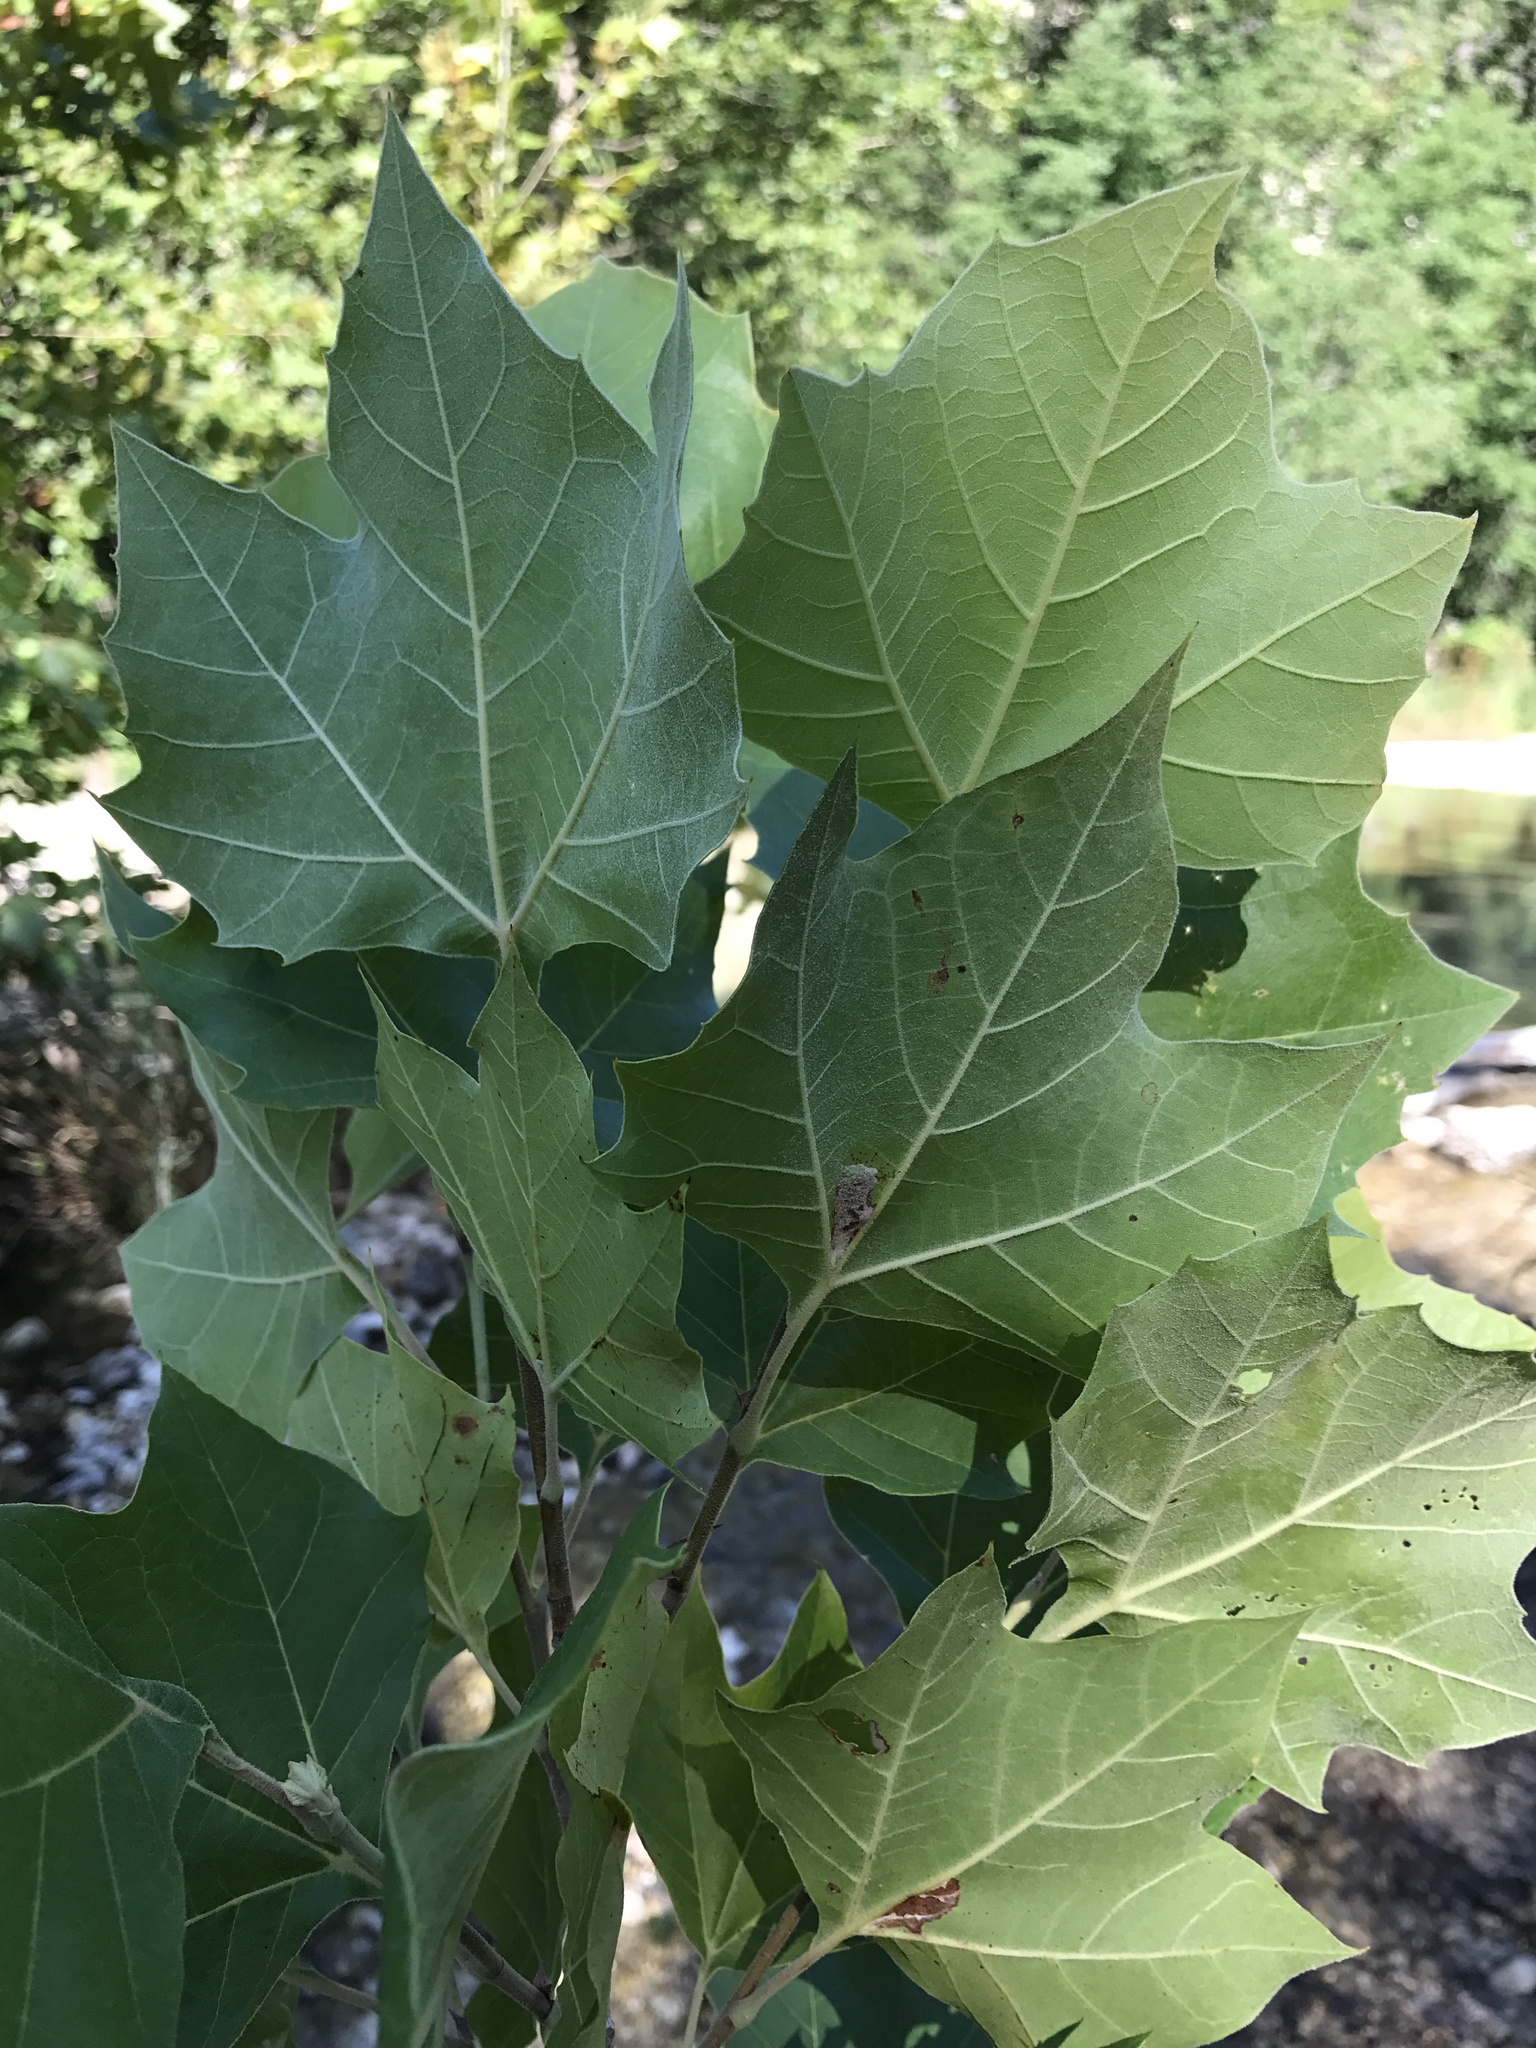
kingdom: Plantae
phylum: Tracheophyta
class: Magnoliopsida
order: Proteales
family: Platanaceae
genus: Platanus
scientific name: Platanus occidentalis
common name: American sycamore
